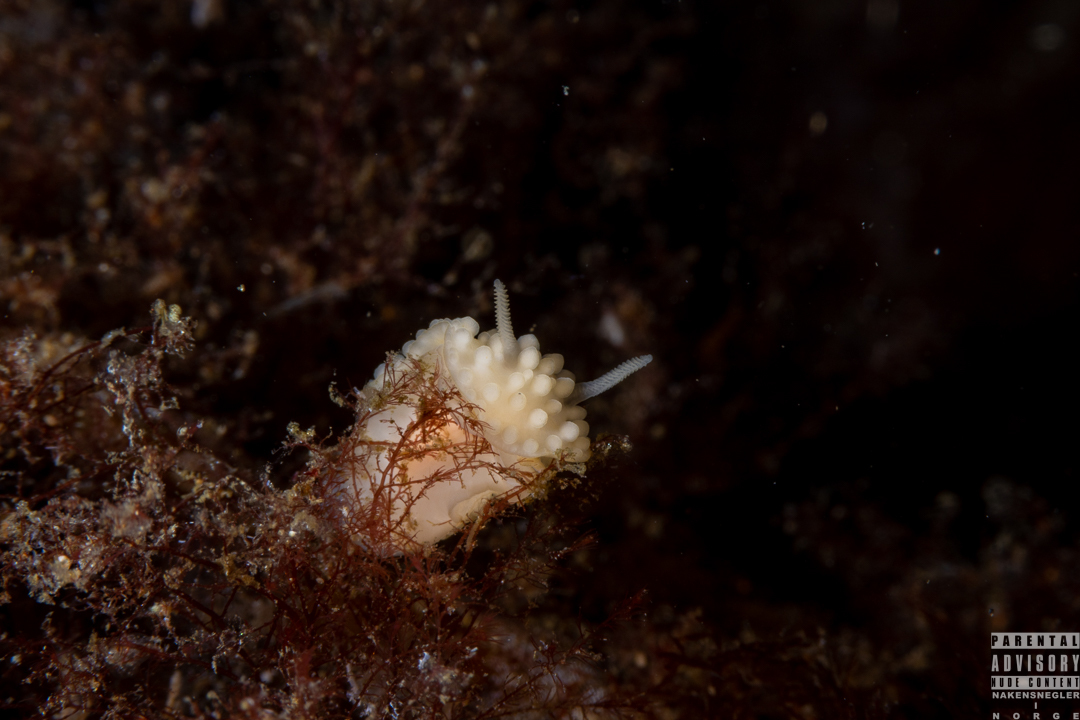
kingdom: Animalia
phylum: Mollusca
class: Gastropoda
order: Nudibranchia
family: Onchidorididae
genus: Adalaria
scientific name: Adalaria loveni
